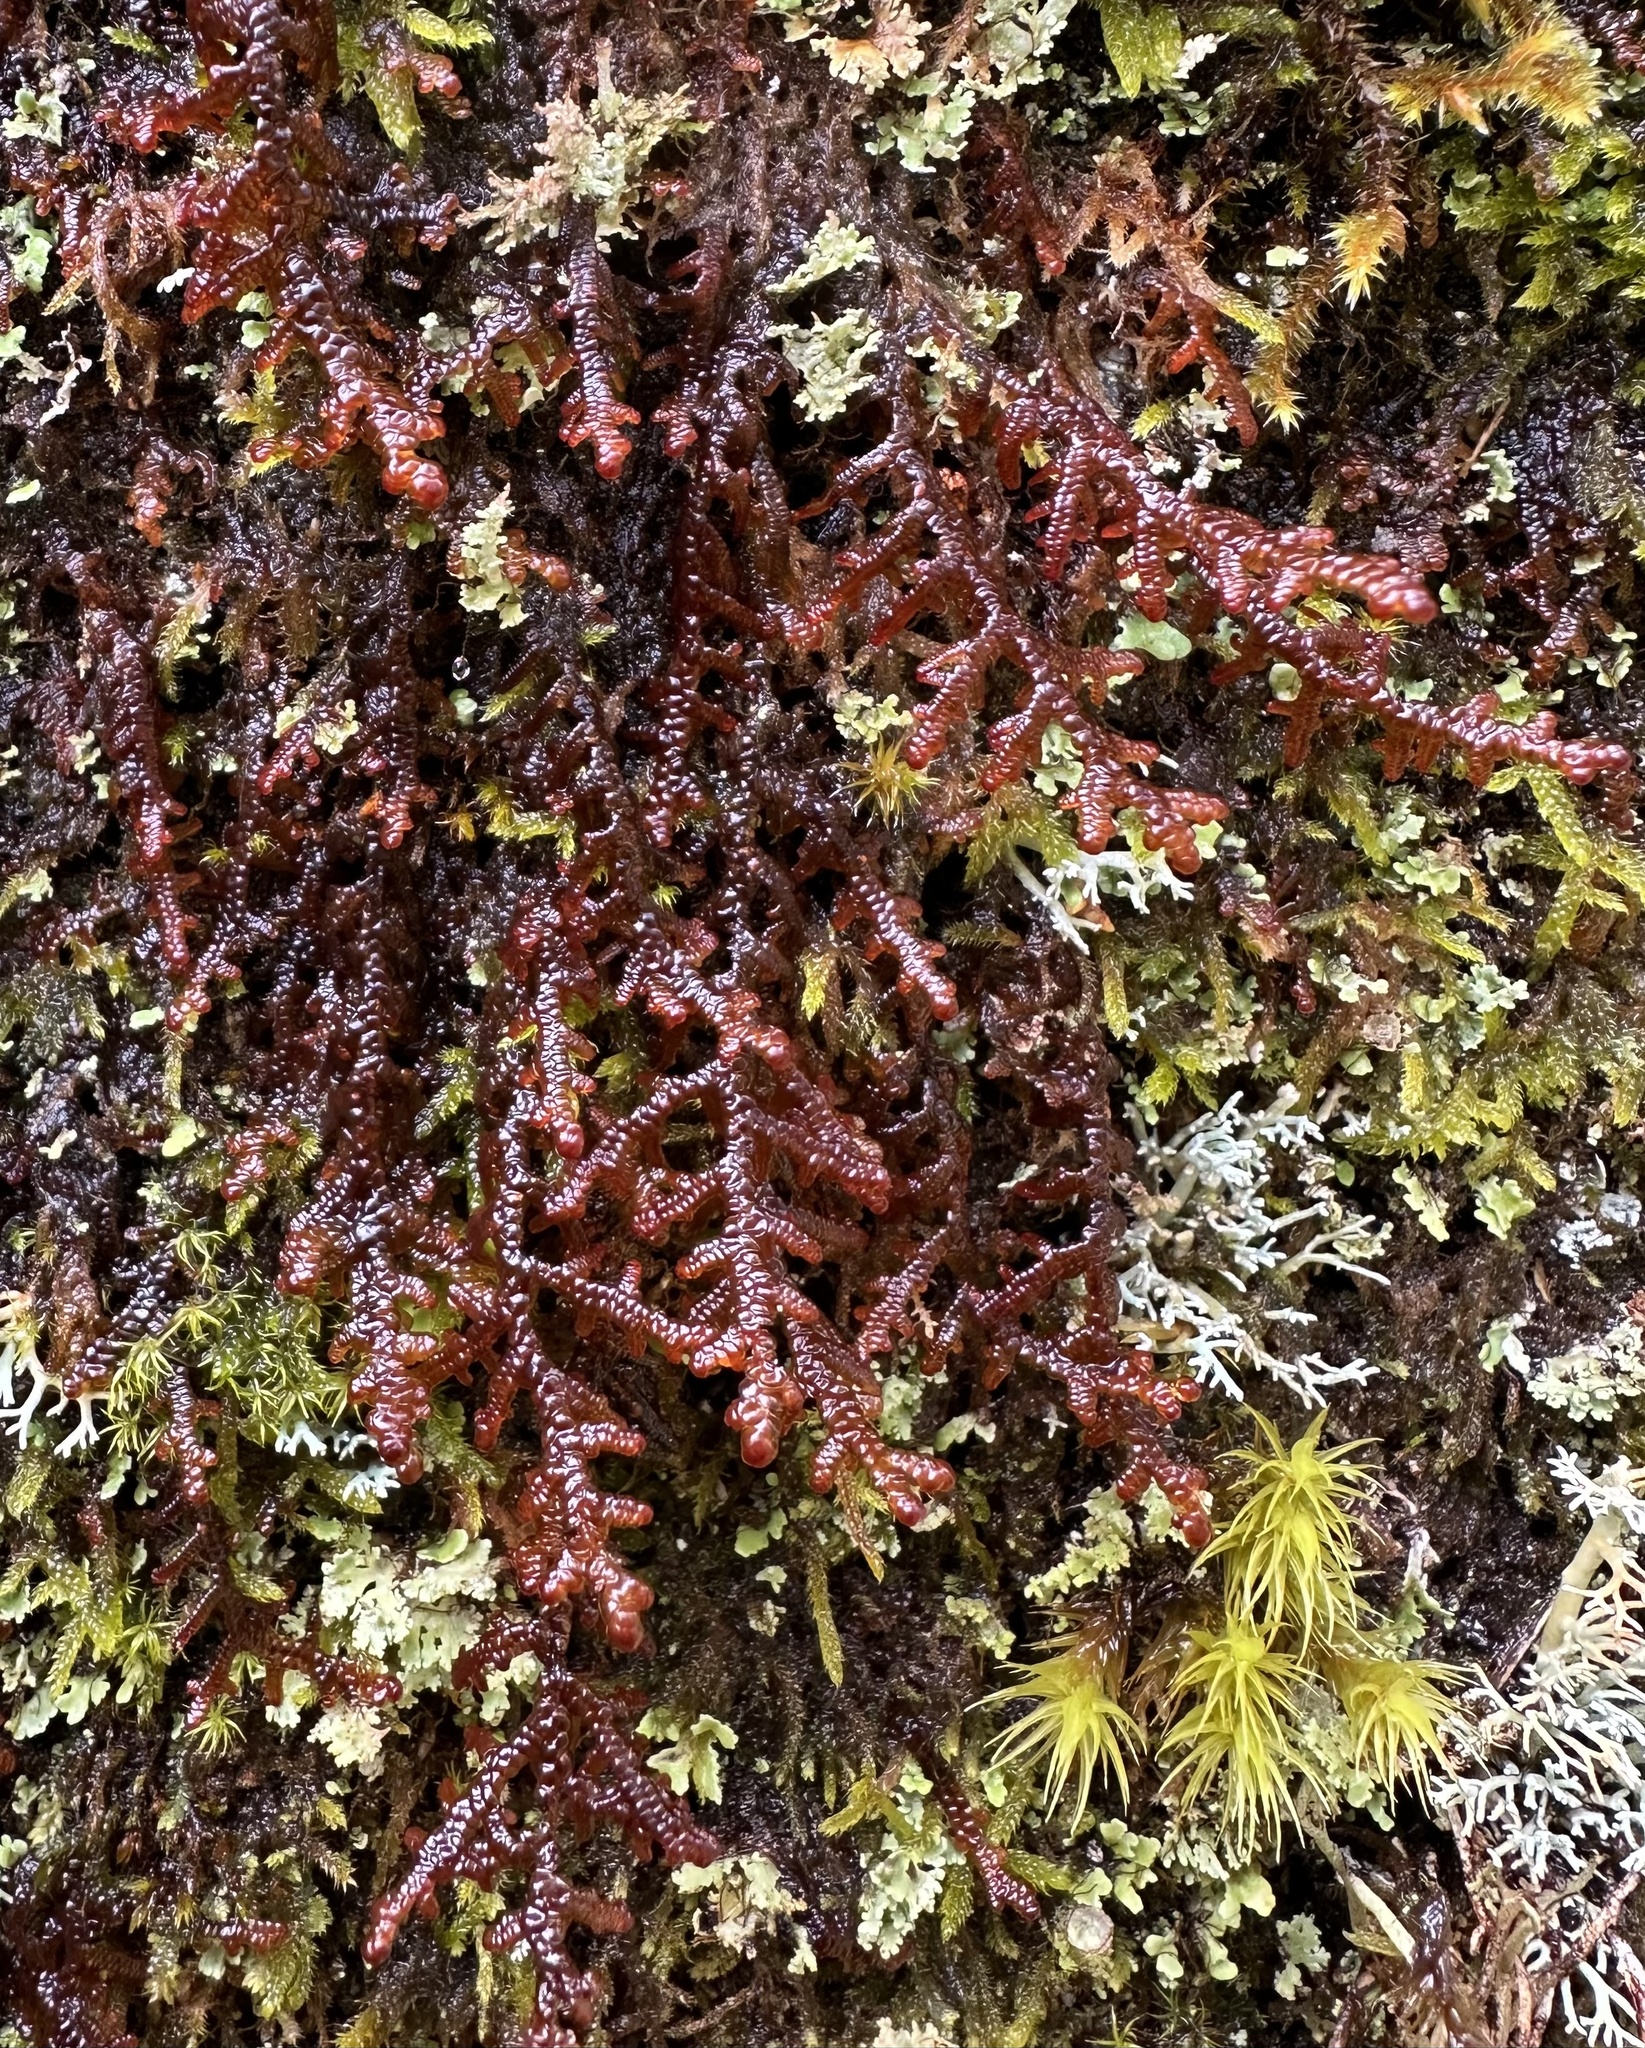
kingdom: Plantae
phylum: Marchantiophyta
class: Jungermanniopsida
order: Porellales
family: Frullaniaceae
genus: Frullania
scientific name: Frullania tamarisci
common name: Tamarisk scalewort
